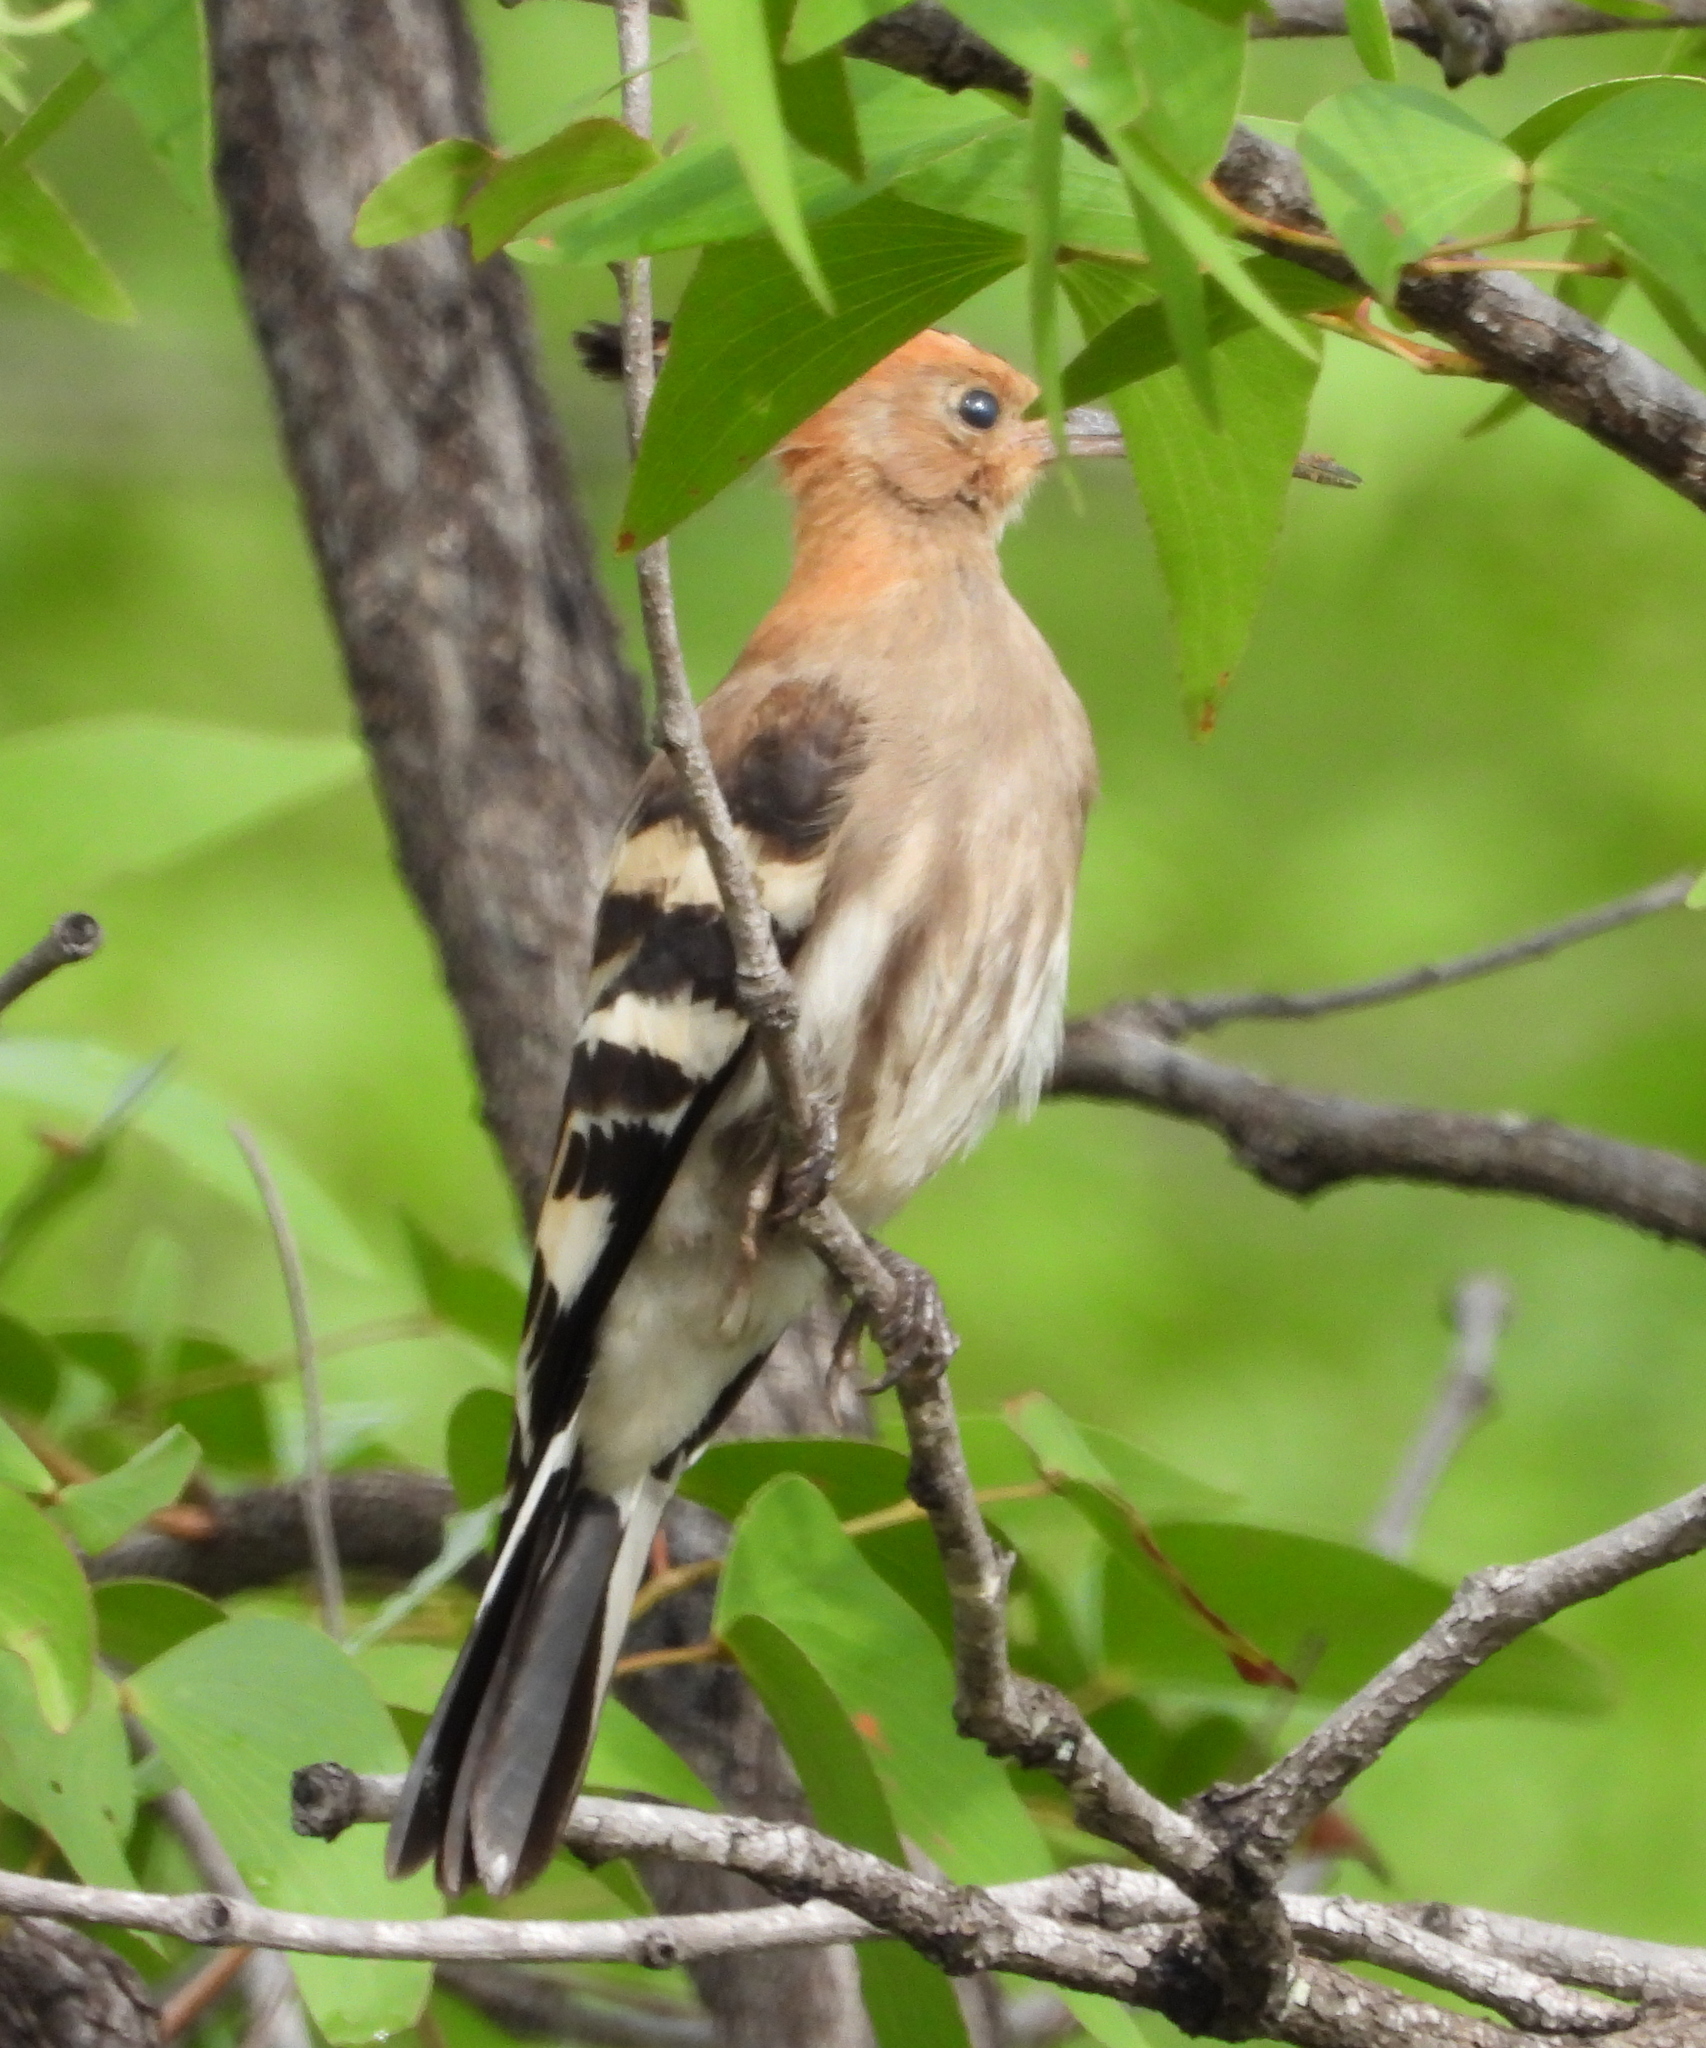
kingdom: Animalia
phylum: Chordata
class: Aves
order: Bucerotiformes
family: Upupidae
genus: Upupa
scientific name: Upupa epops
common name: Eurasian hoopoe
